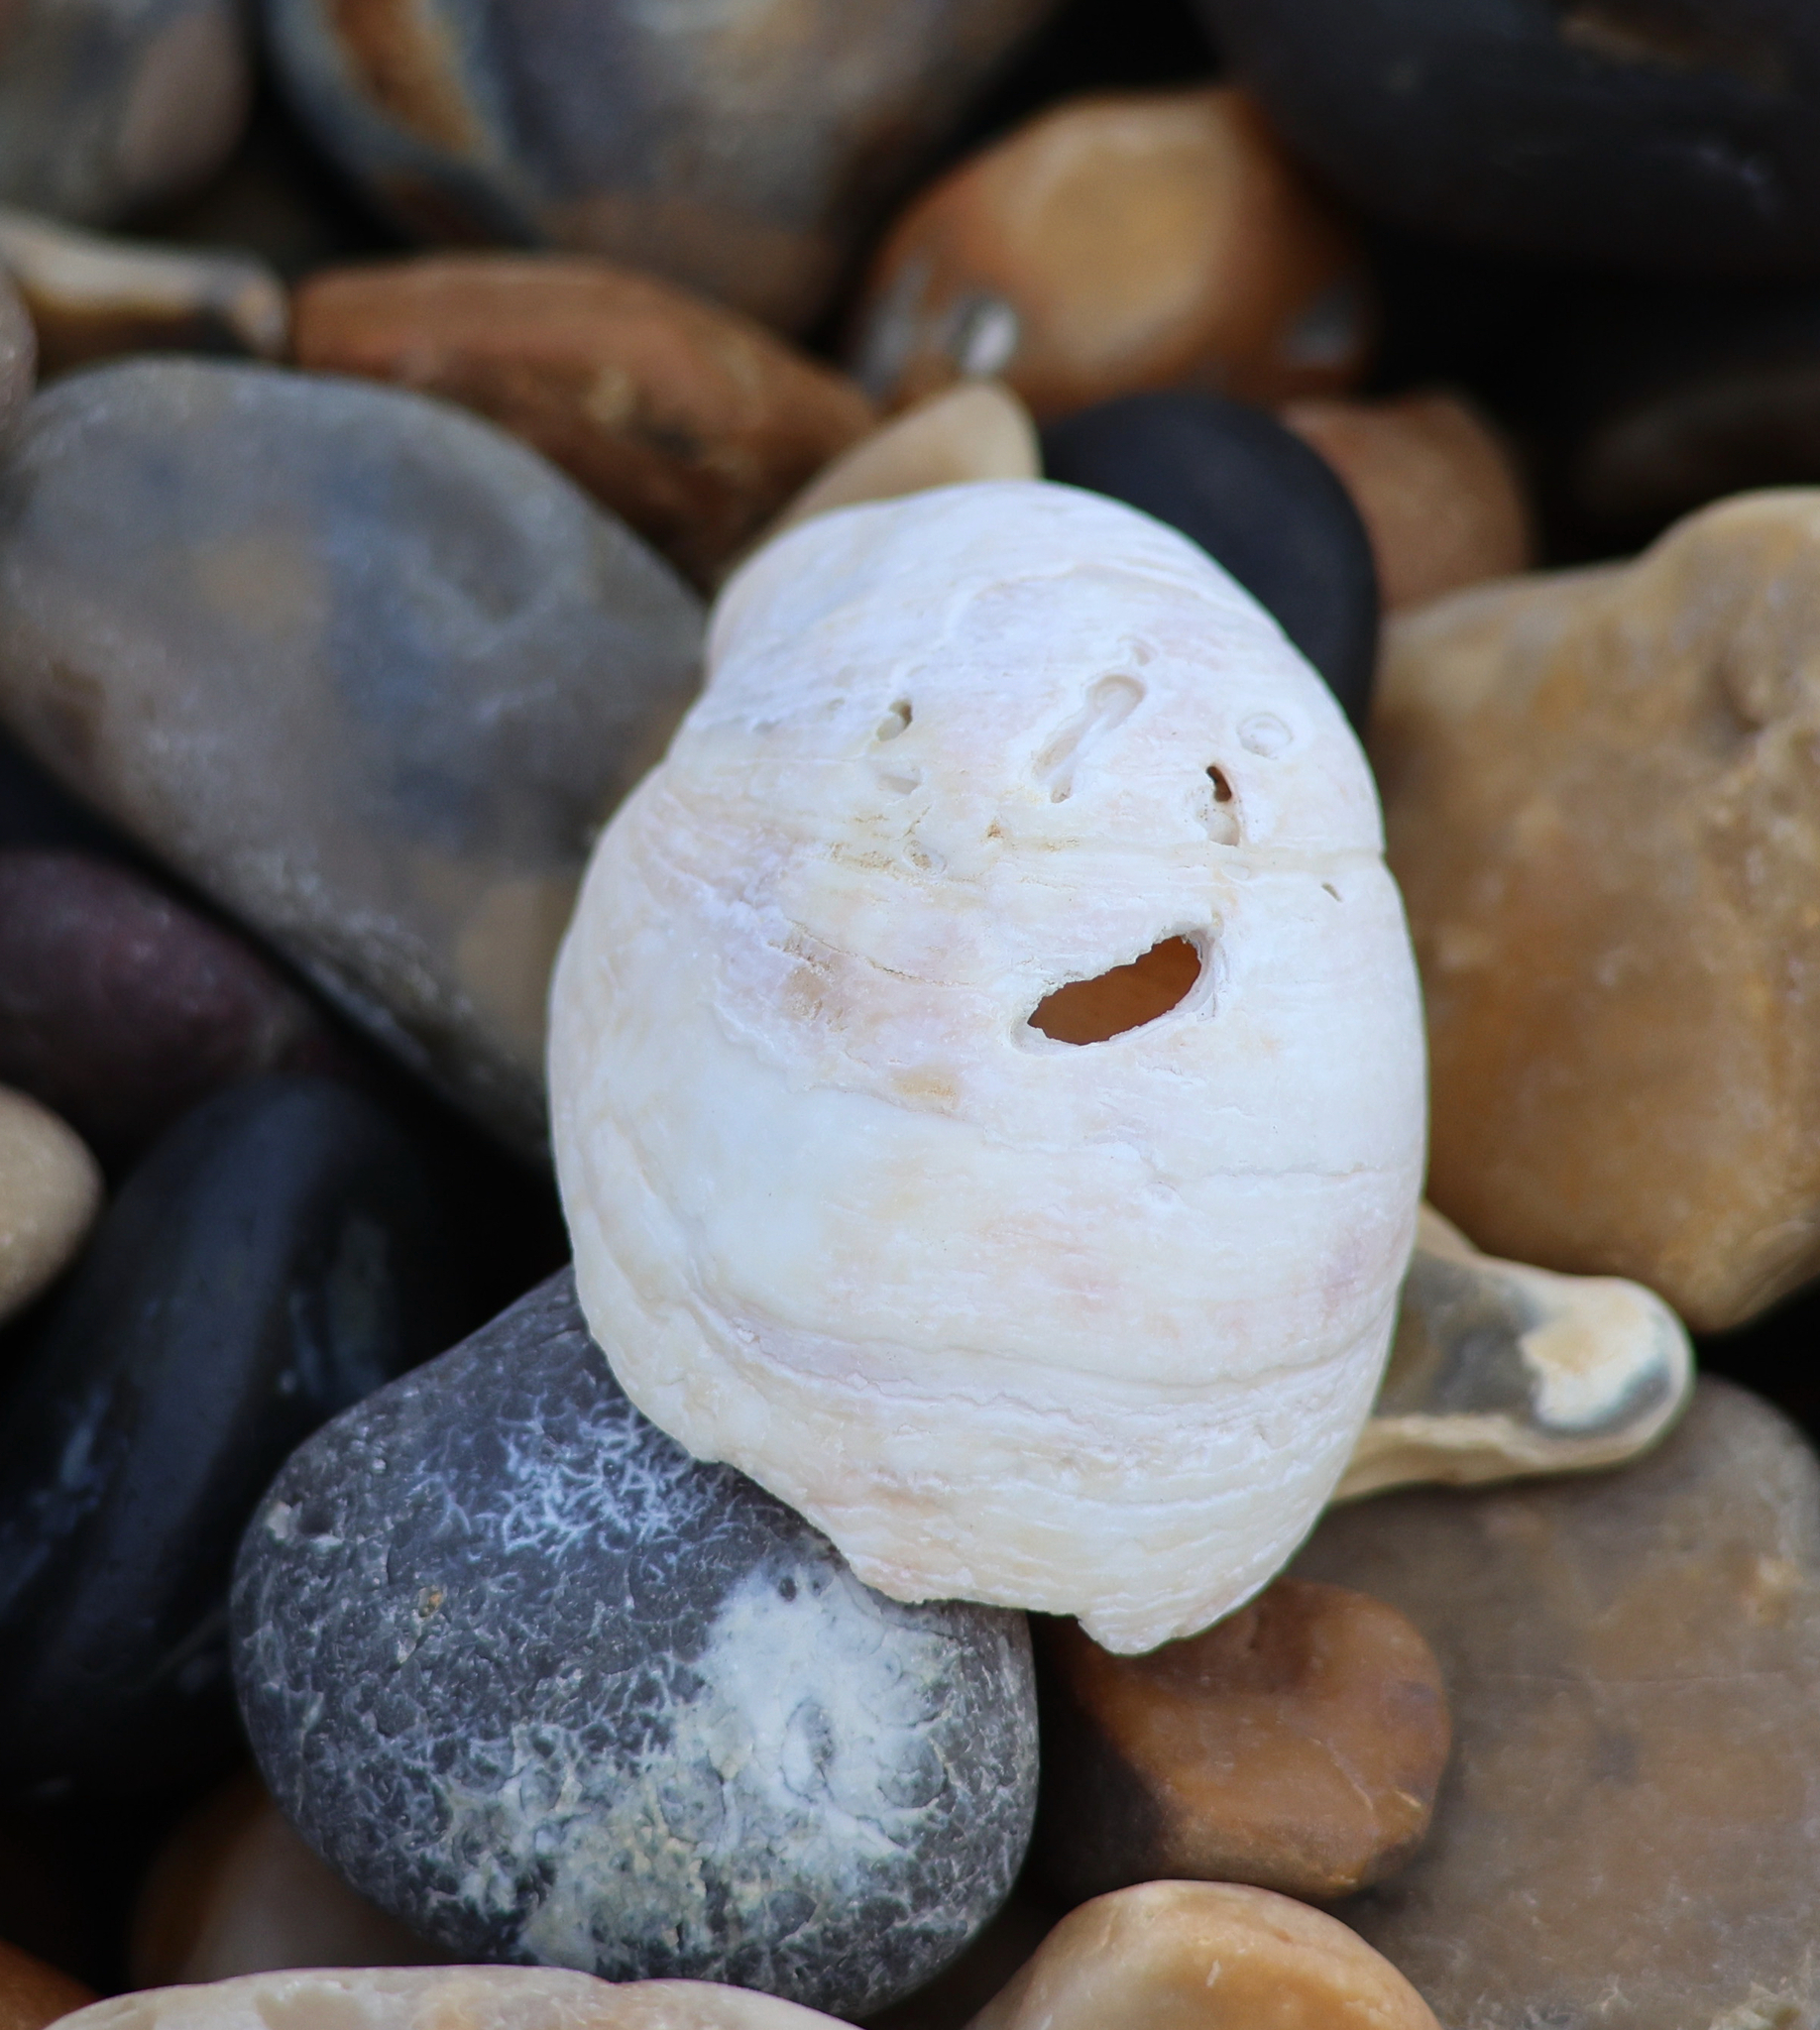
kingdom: Animalia
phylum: Mollusca
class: Gastropoda
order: Littorinimorpha
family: Calyptraeidae
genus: Crepidula
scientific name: Crepidula fornicata
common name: Slipper limpet
